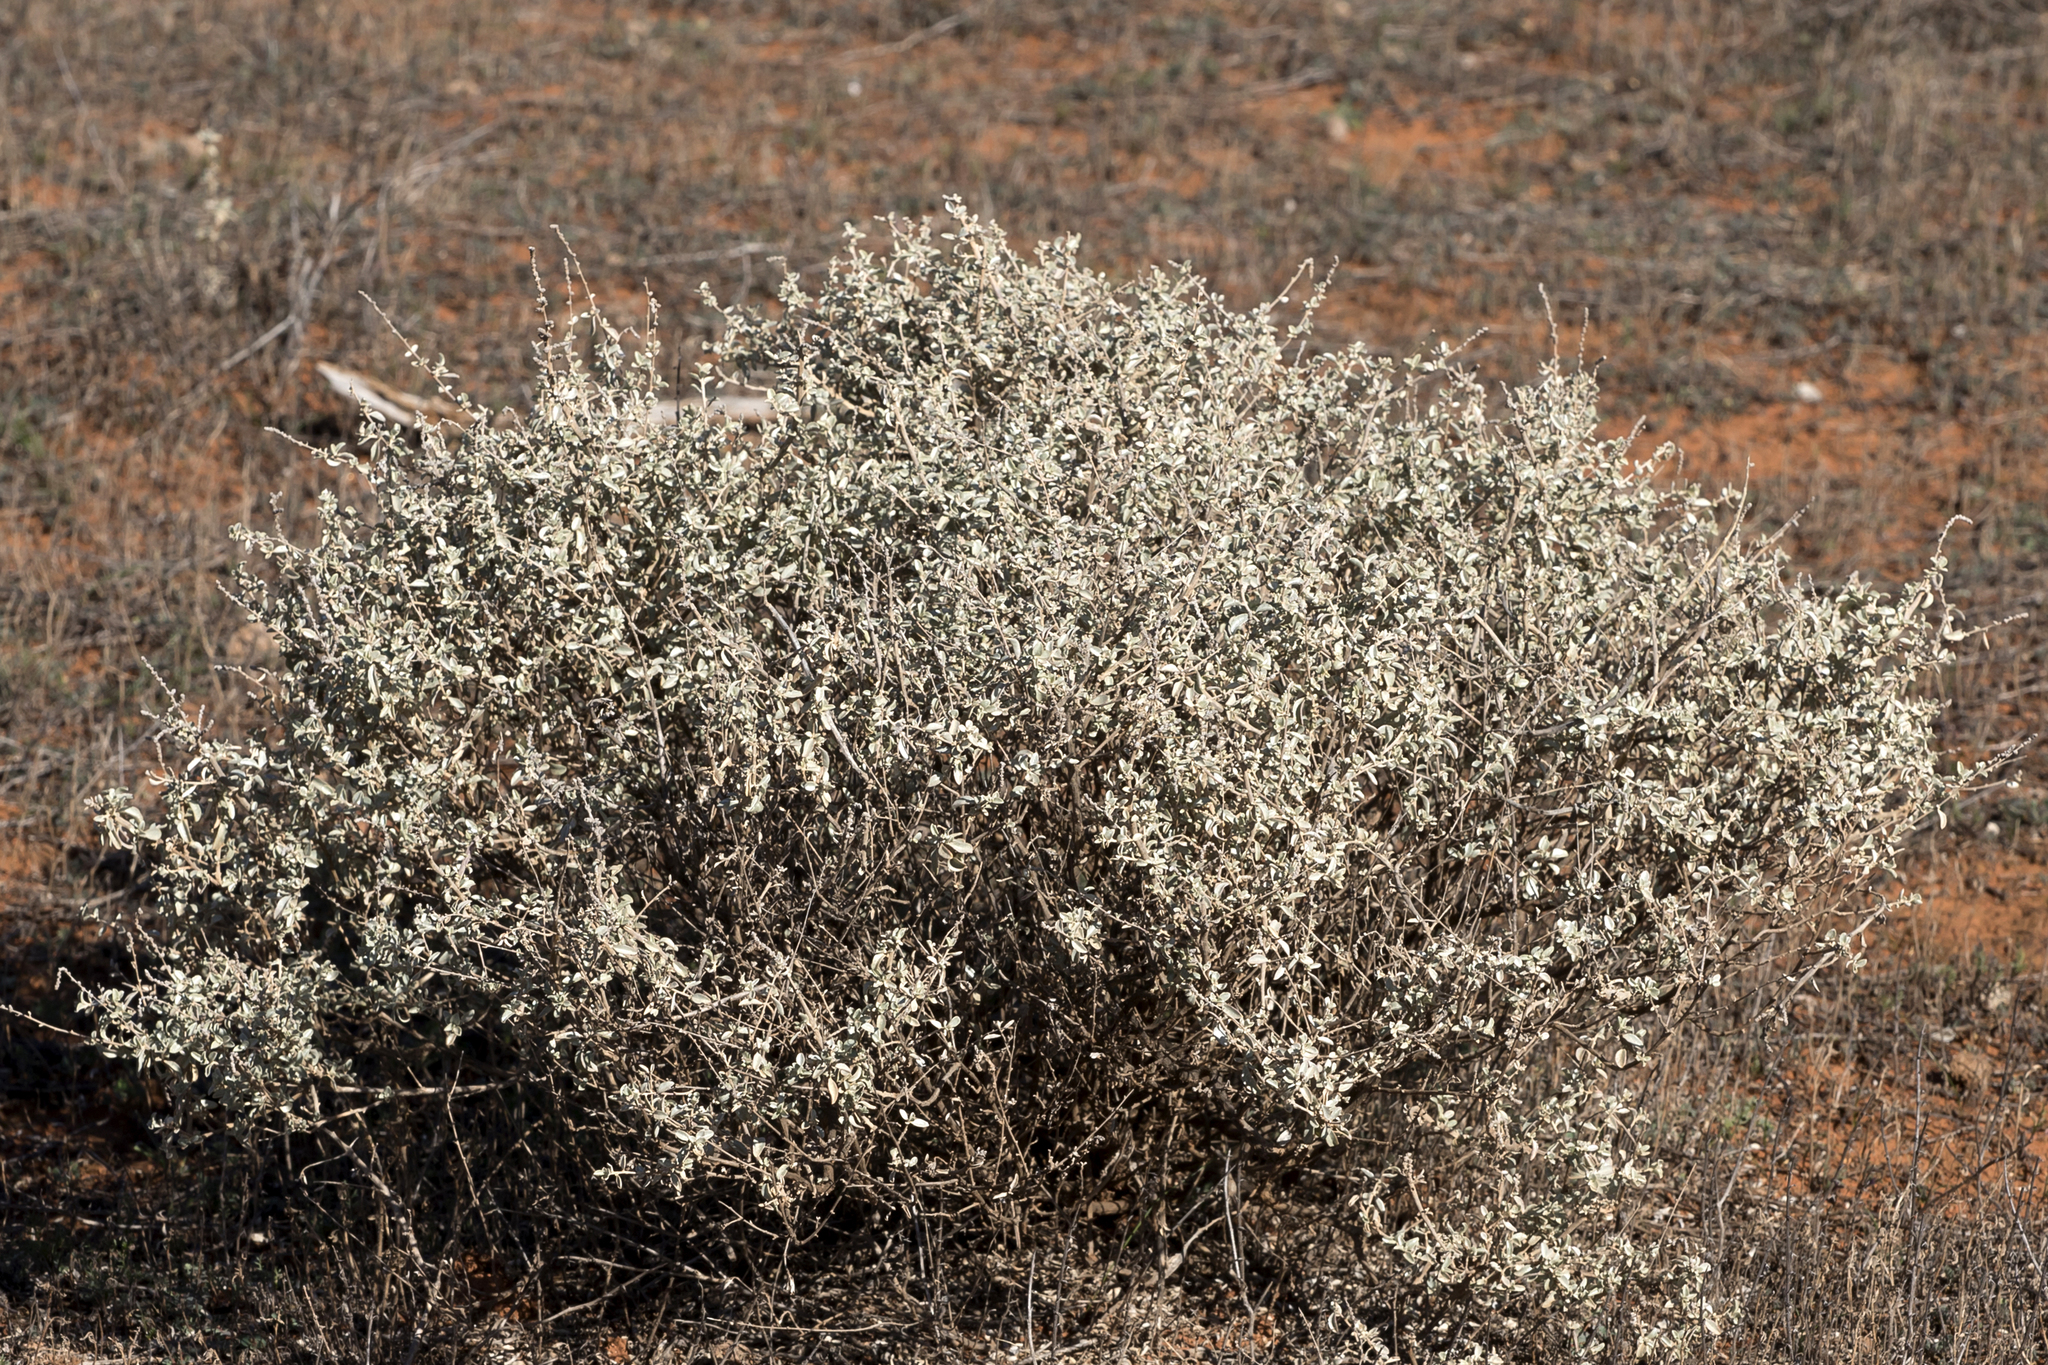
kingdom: Plantae
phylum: Tracheophyta
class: Magnoliopsida
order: Caryophyllales
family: Amaranthaceae
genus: Atriplex
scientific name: Atriplex stipitata
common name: Mallee saltbush
